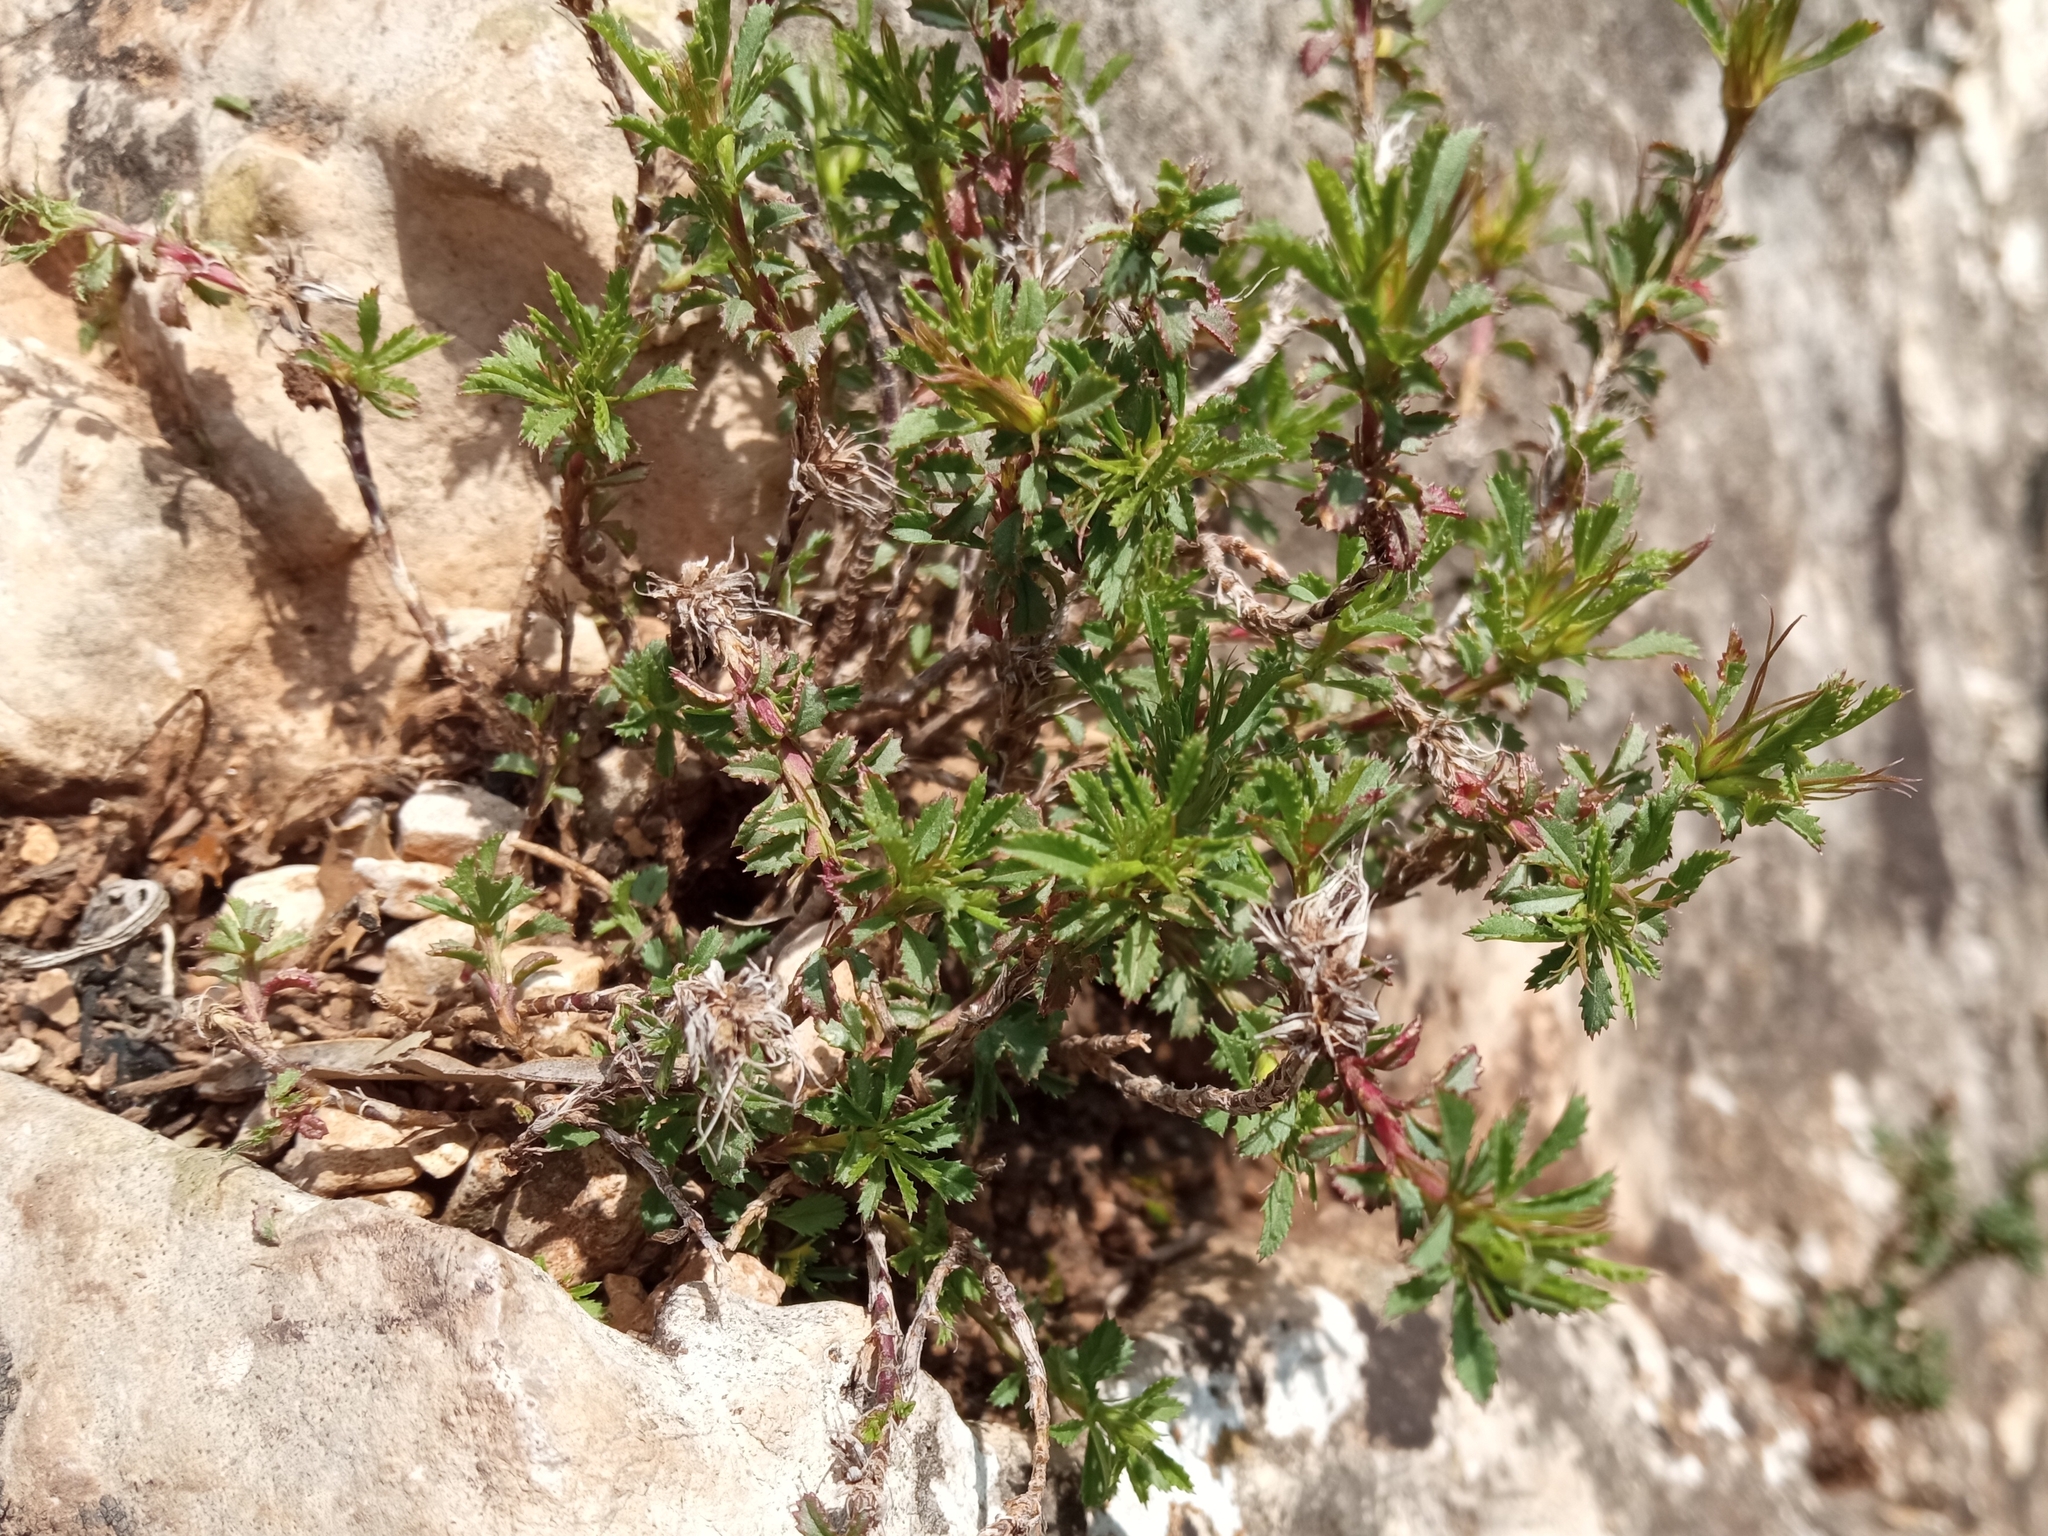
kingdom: Plantae
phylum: Tracheophyta
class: Magnoliopsida
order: Fabales
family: Fabaceae
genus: Ononis
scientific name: Ononis minutissima
